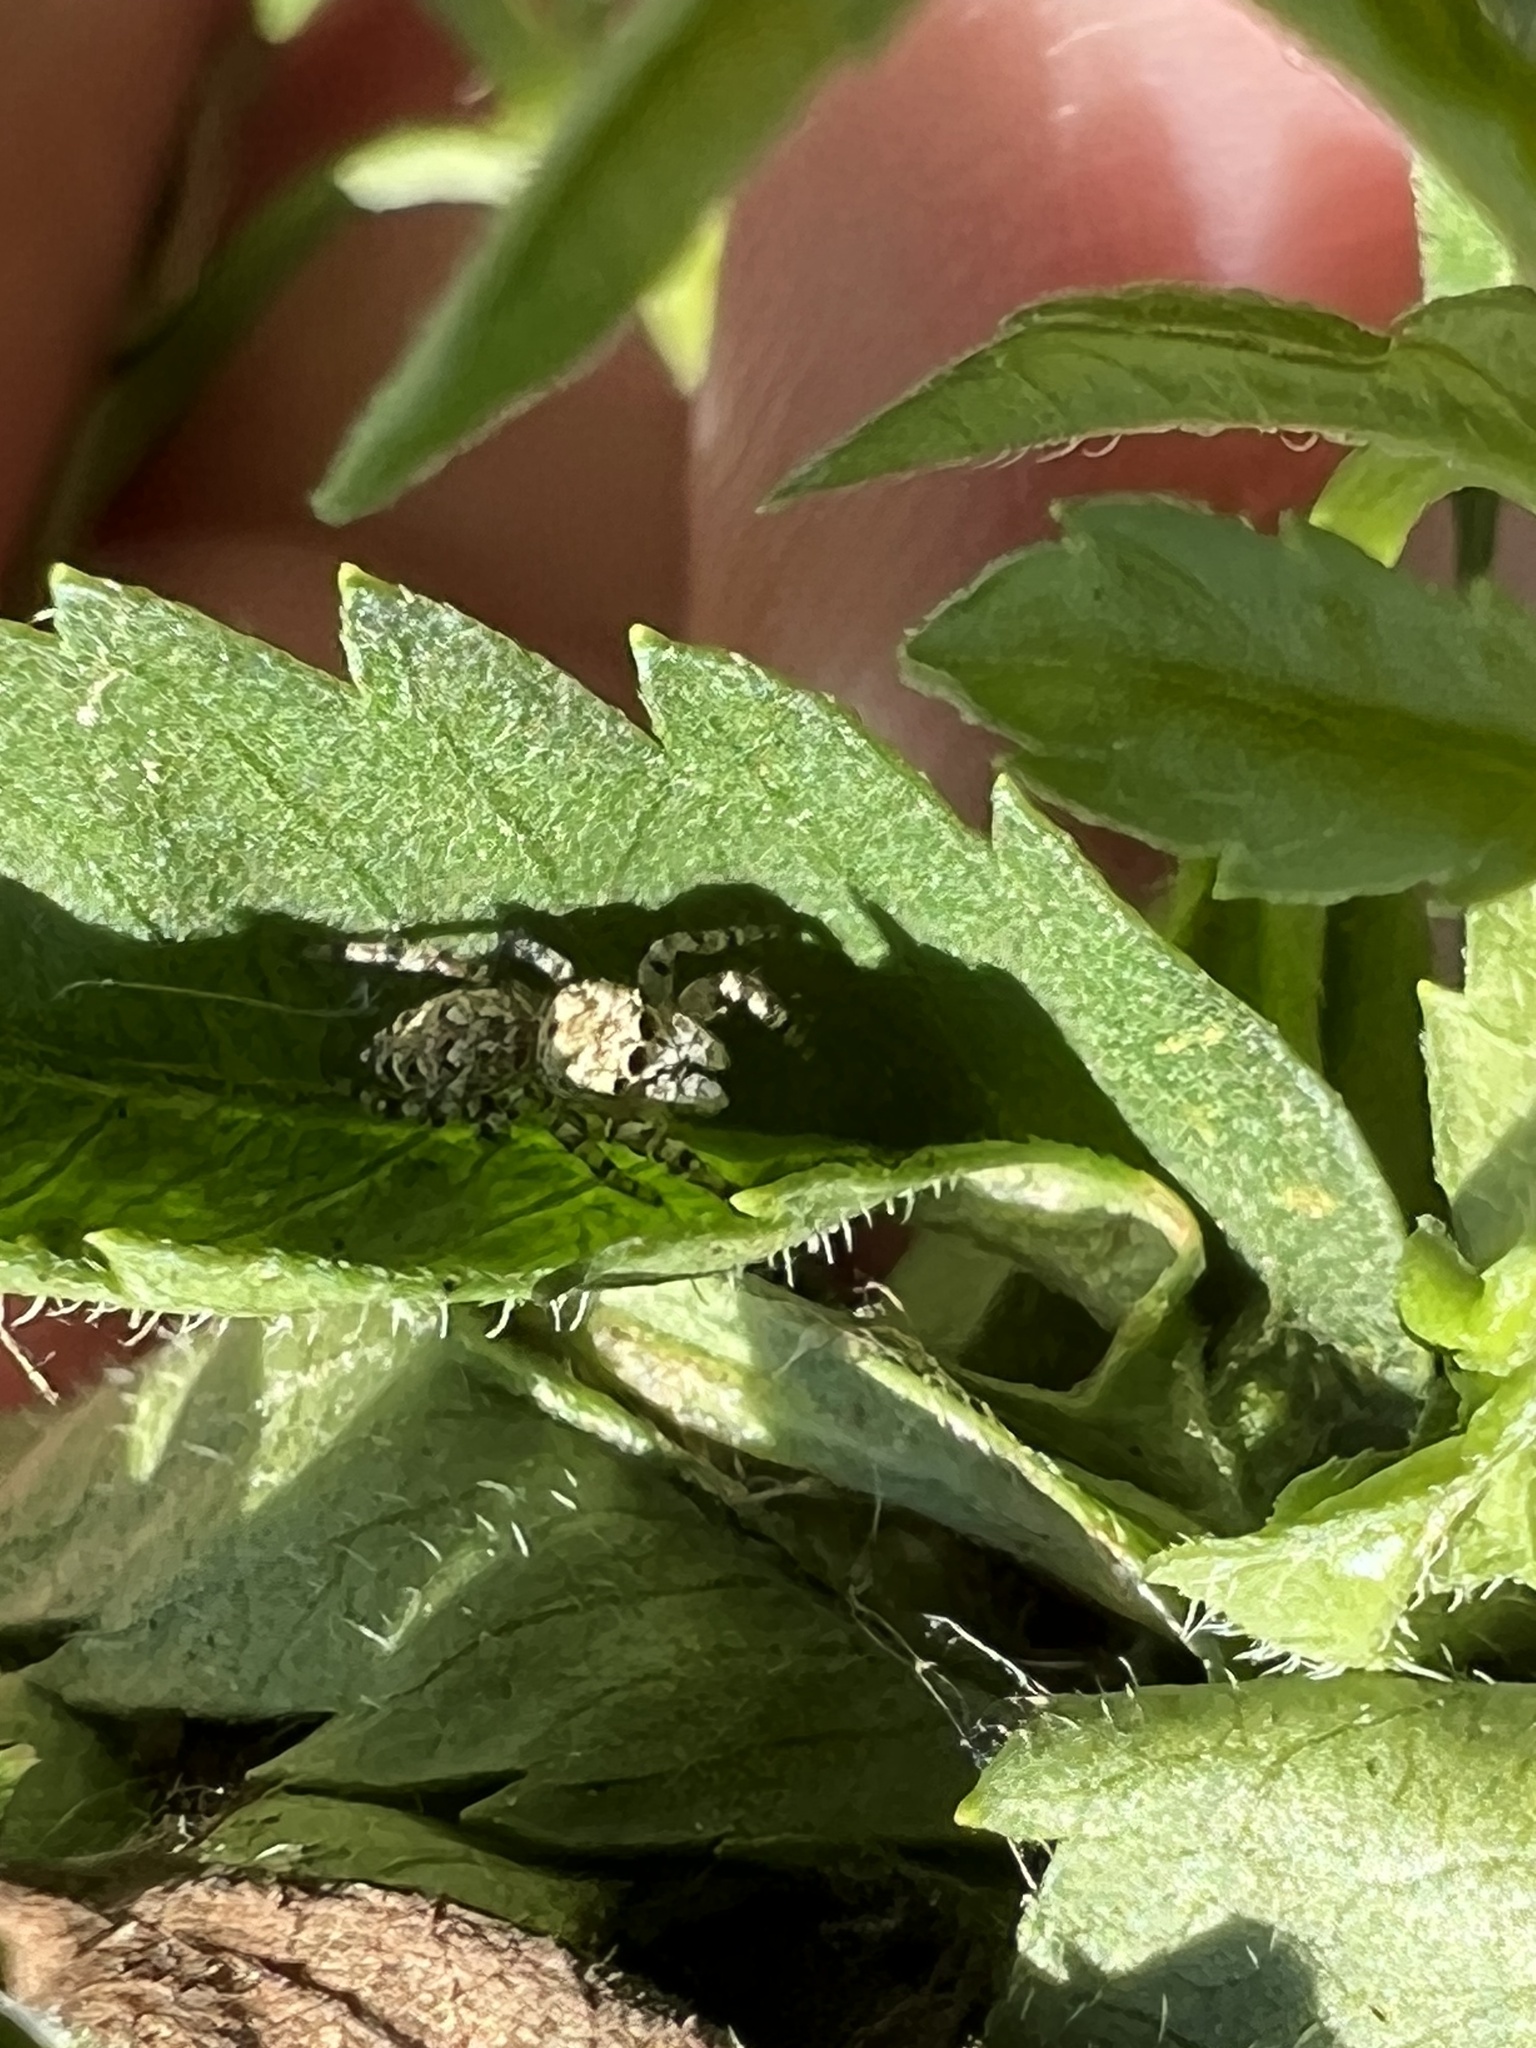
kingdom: Animalia
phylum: Arthropoda
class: Arachnida
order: Araneae
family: Salticidae
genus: Pelegrina
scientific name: Pelegrina galathea
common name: Jumping spiders
